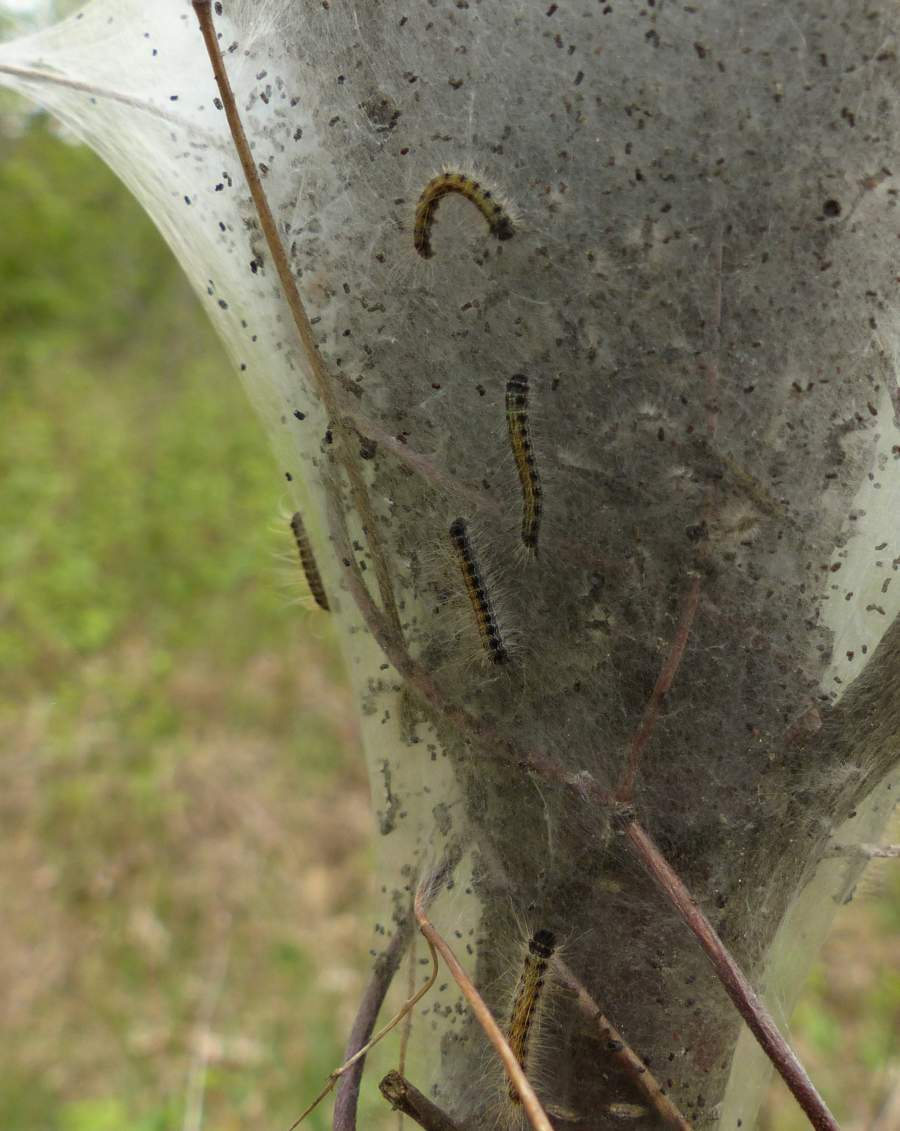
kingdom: Animalia
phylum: Arthropoda
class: Insecta
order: Lepidoptera
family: Lasiocampidae
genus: Malacosoma
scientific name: Malacosoma americana
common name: Eastern tent caterpillar moth
